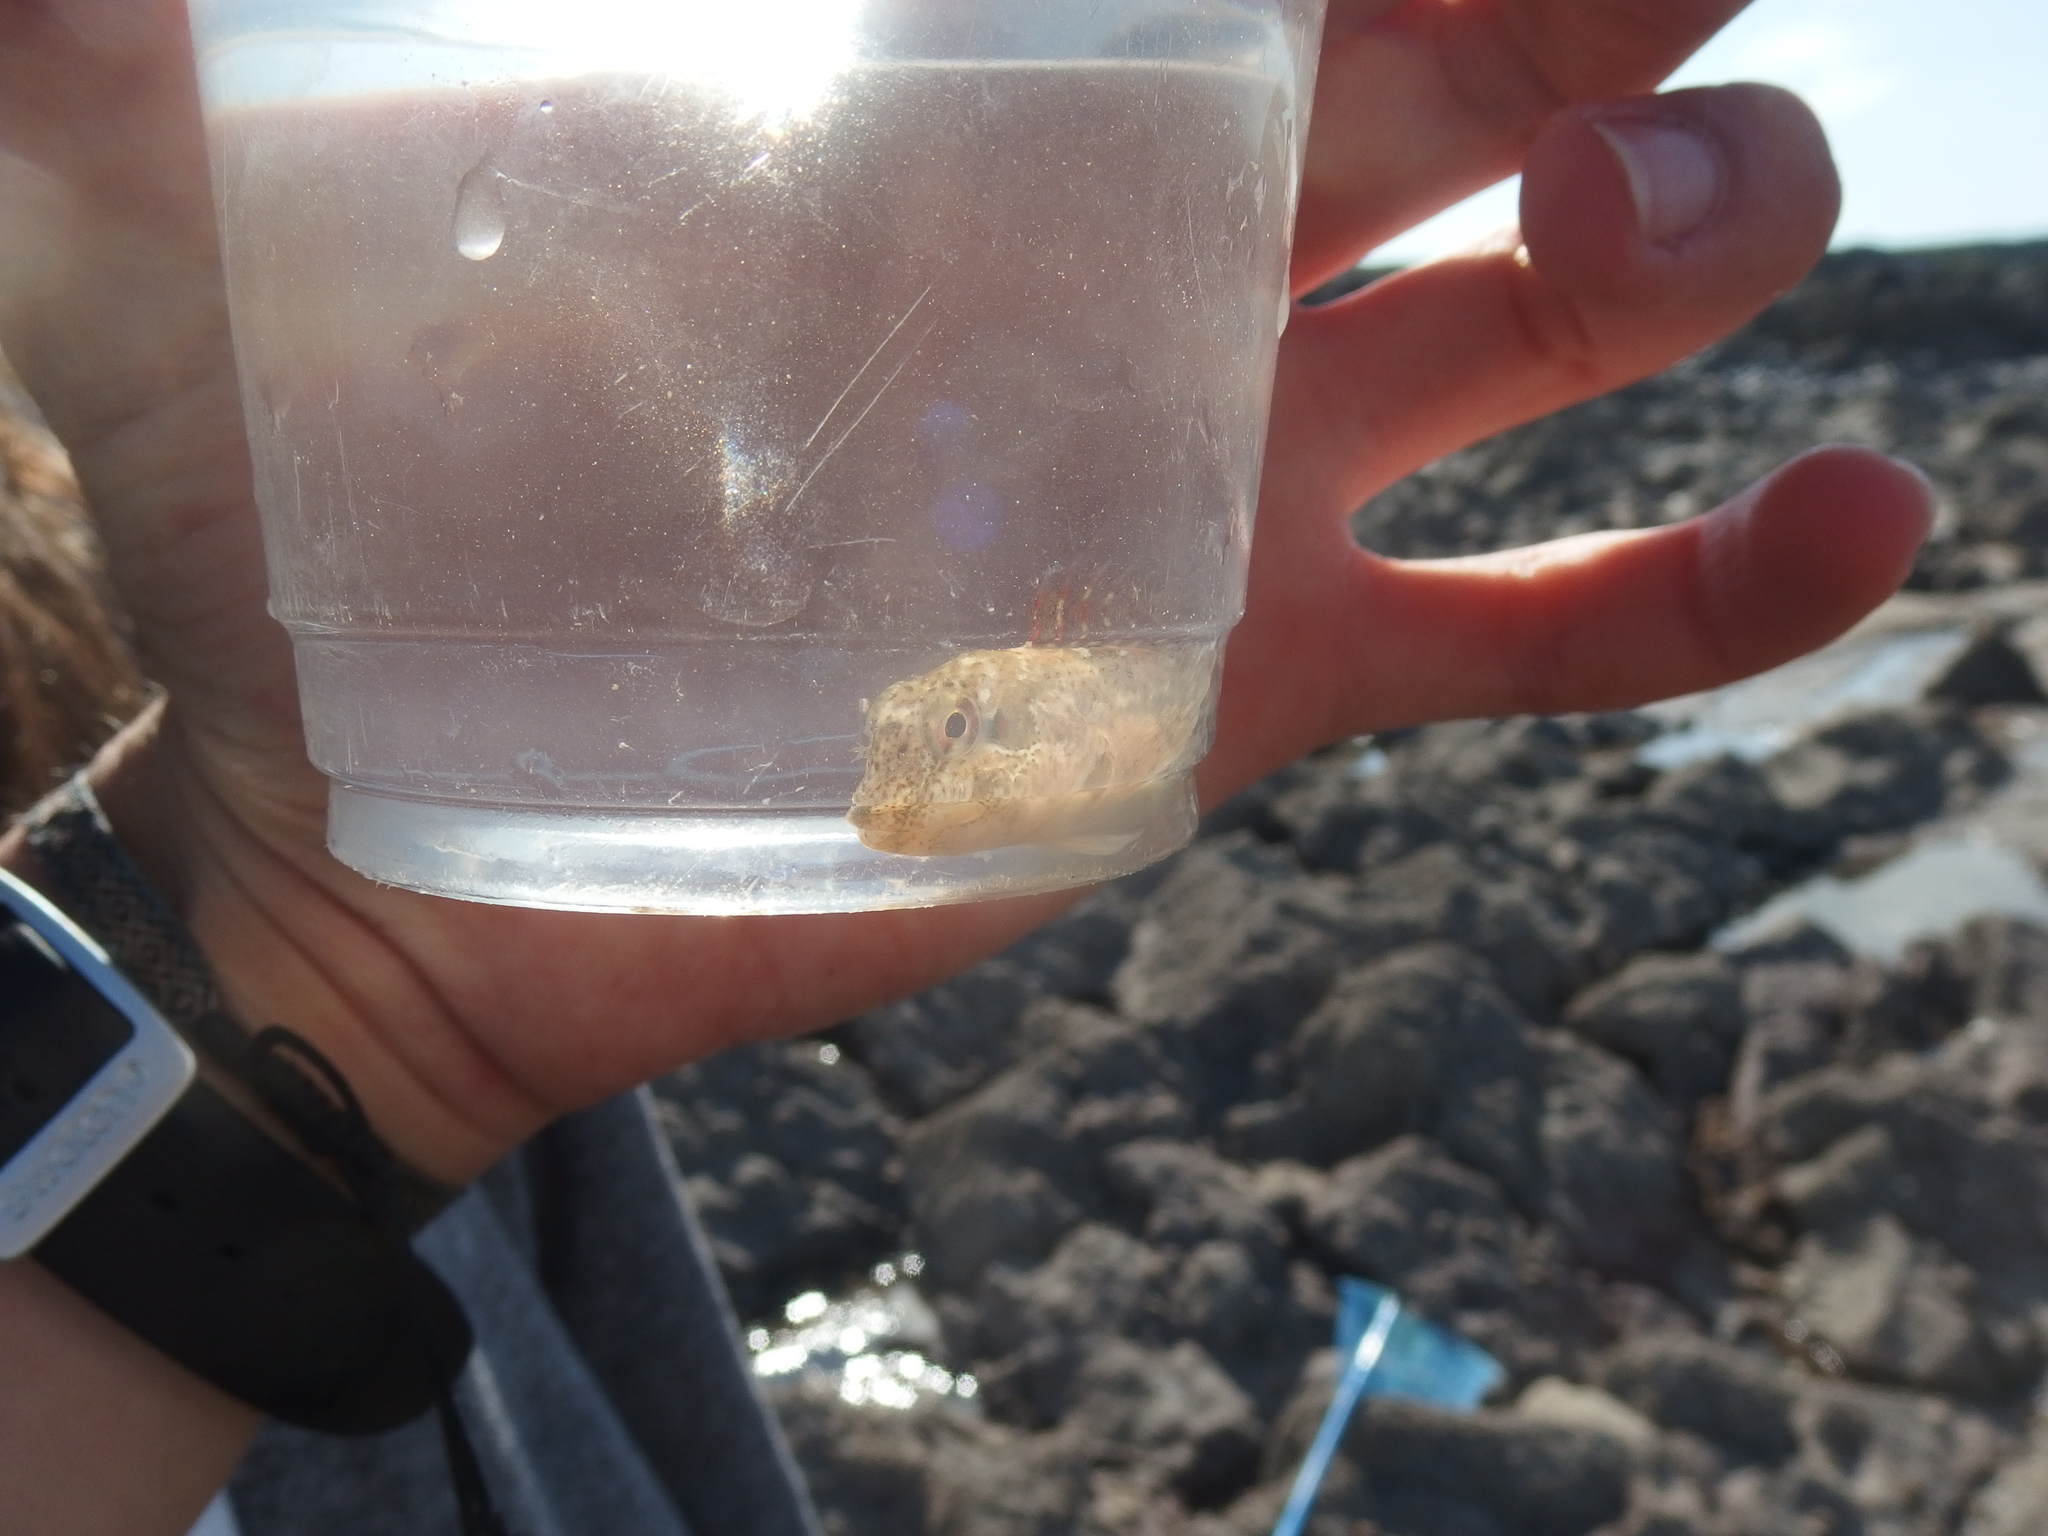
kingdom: Animalia
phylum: Chordata
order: Perciformes
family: Blenniidae
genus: Lipophrys
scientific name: Lipophrys pholis
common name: Shanny
